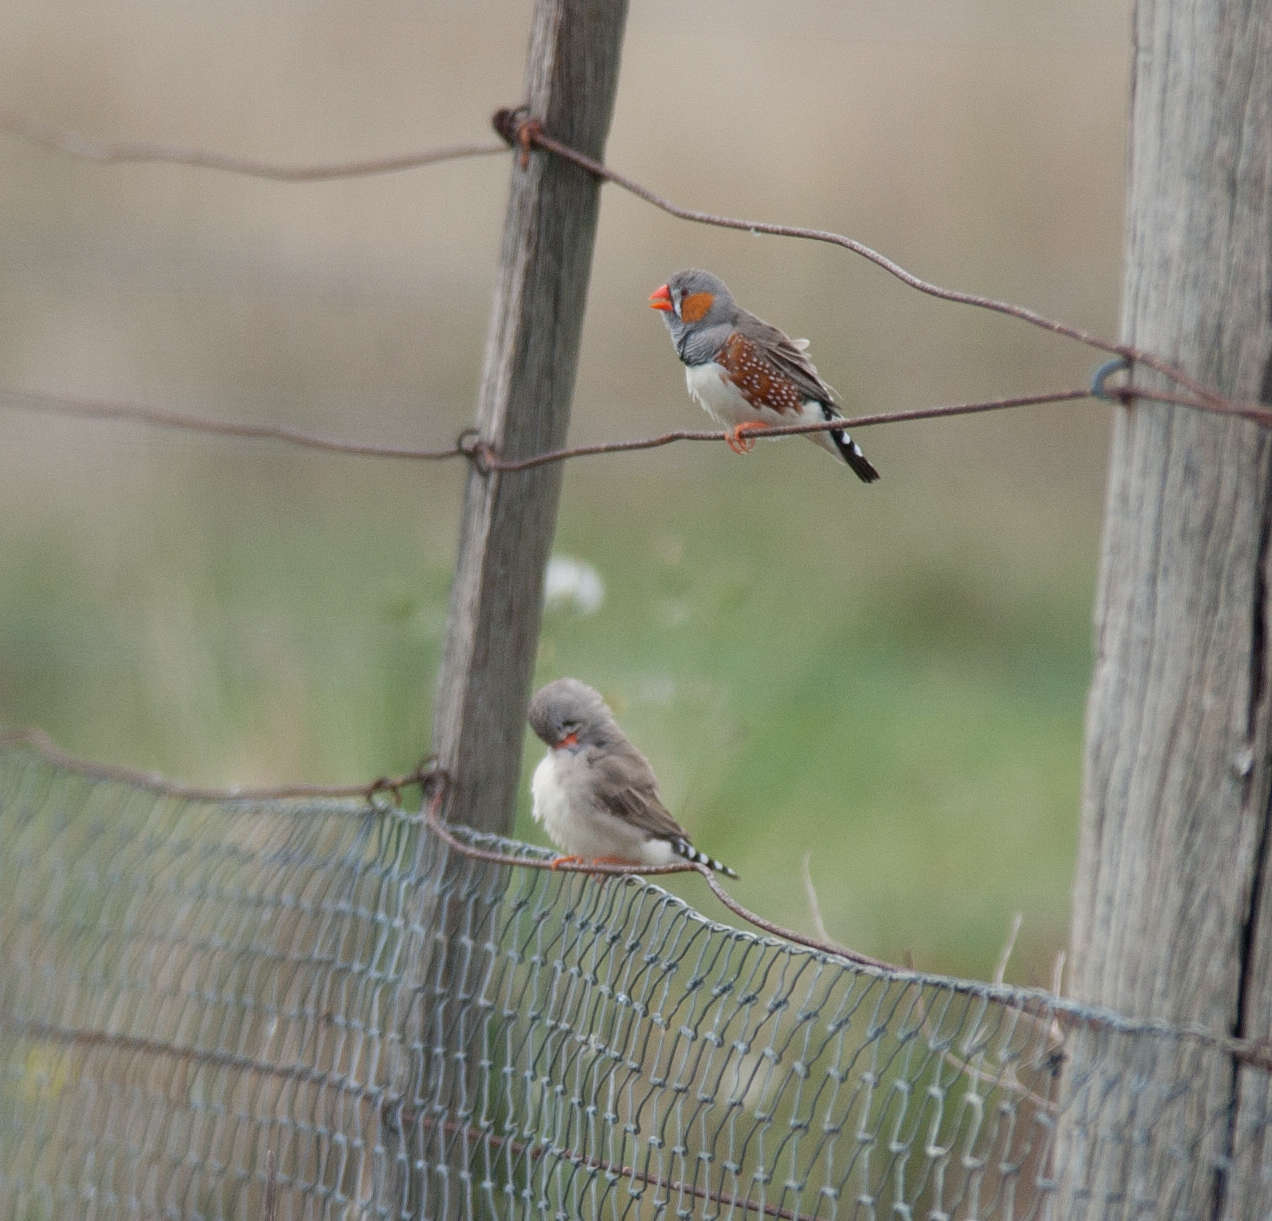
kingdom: Animalia
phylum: Chordata
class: Aves
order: Passeriformes
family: Estrildidae
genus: Taeniopygia
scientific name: Taeniopygia guttata
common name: Zebra finch
